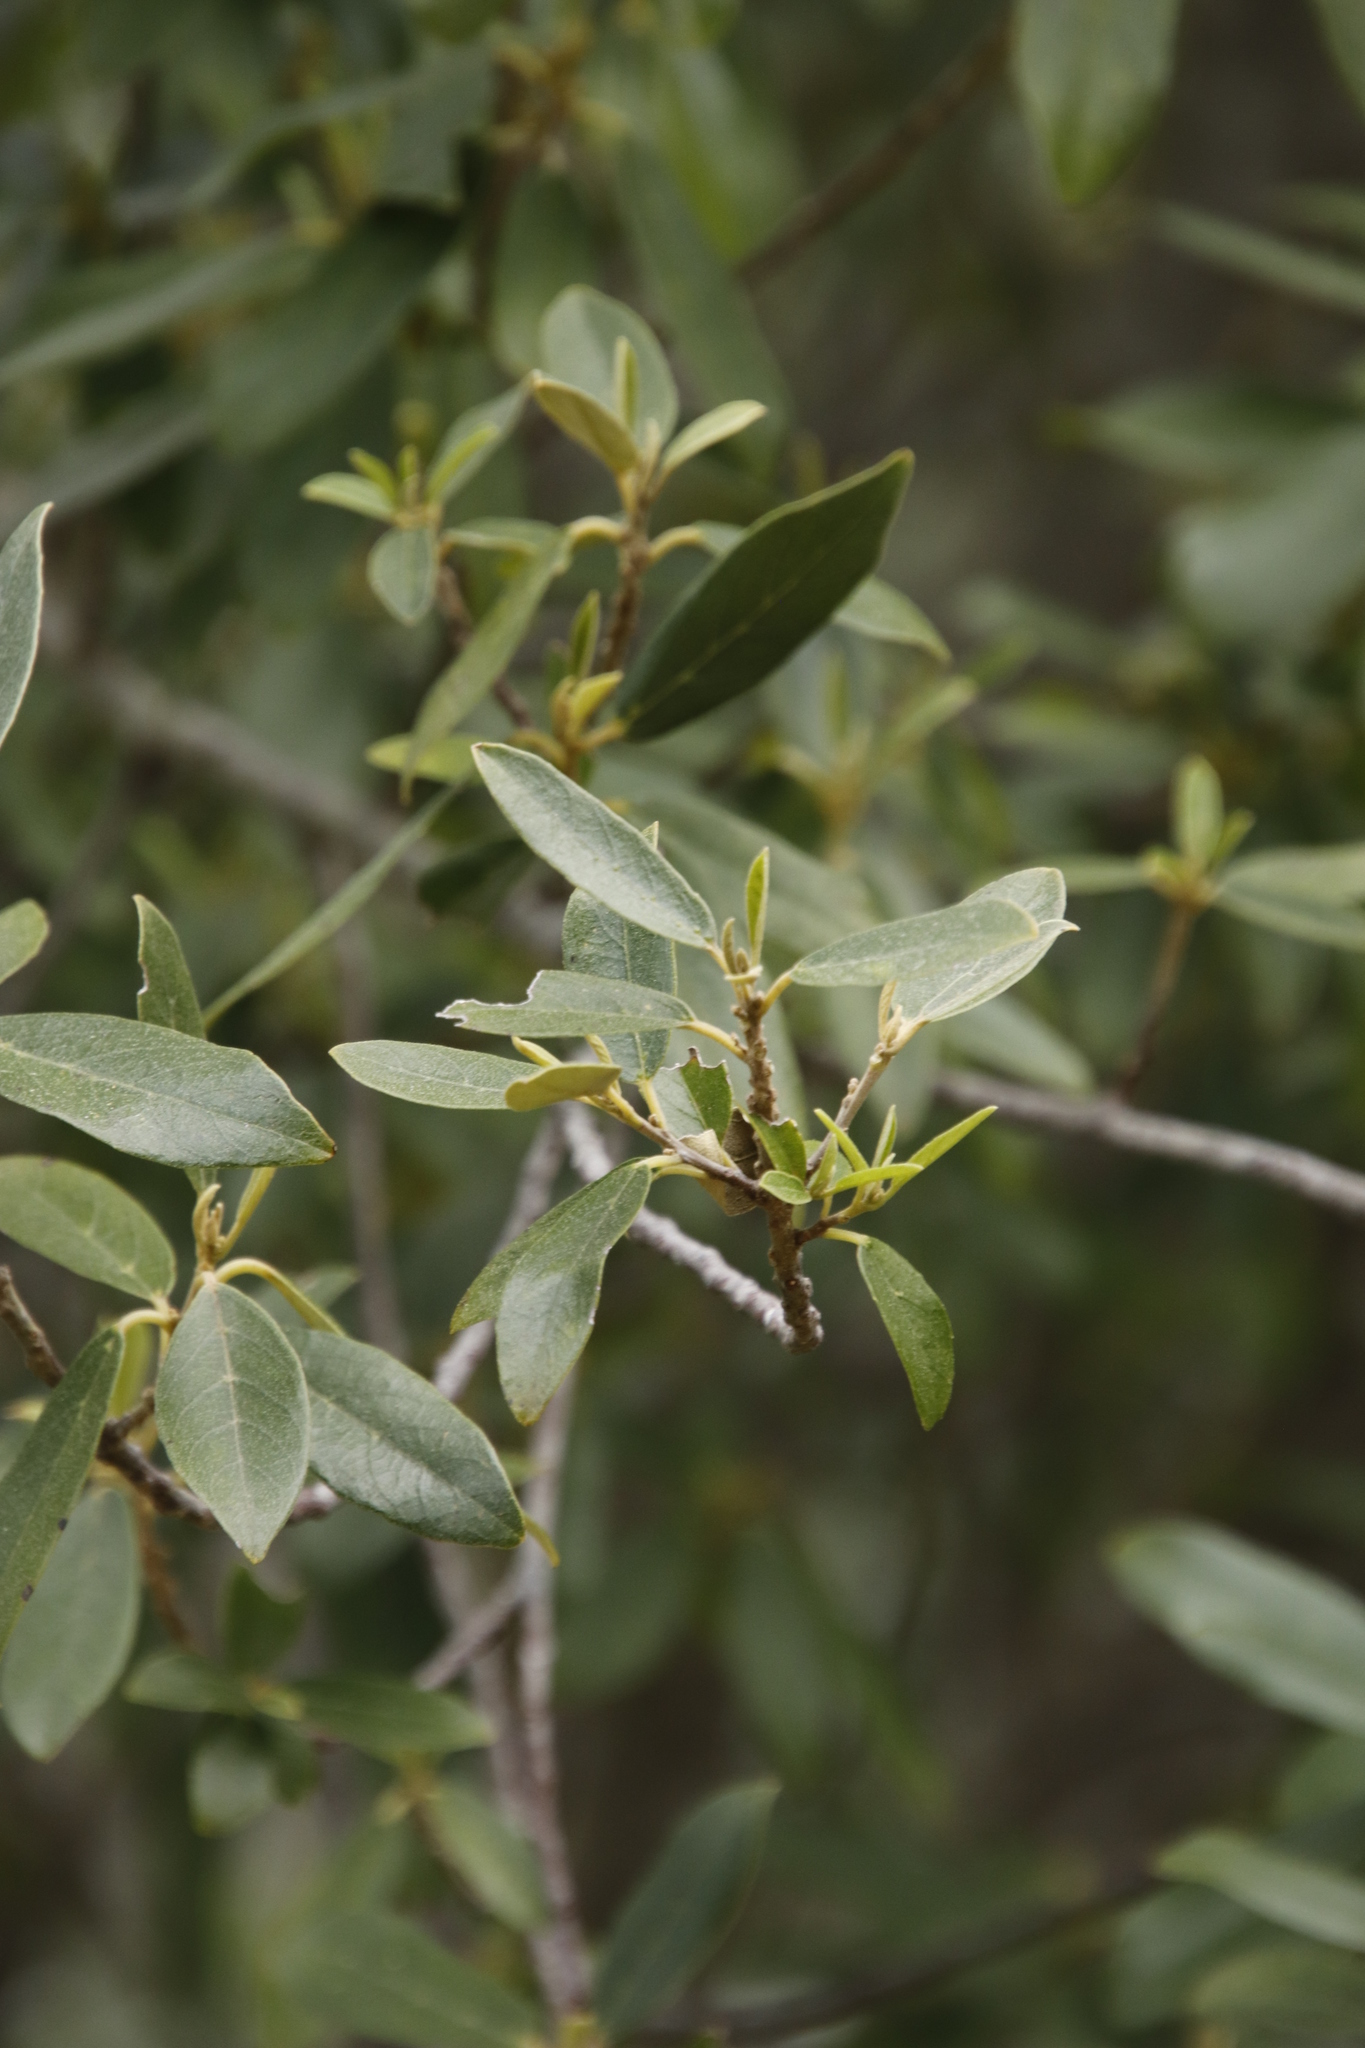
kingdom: Plantae
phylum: Tracheophyta
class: Magnoliopsida
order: Malpighiales
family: Achariaceae
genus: Kiggelaria
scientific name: Kiggelaria africana
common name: Wild peach
